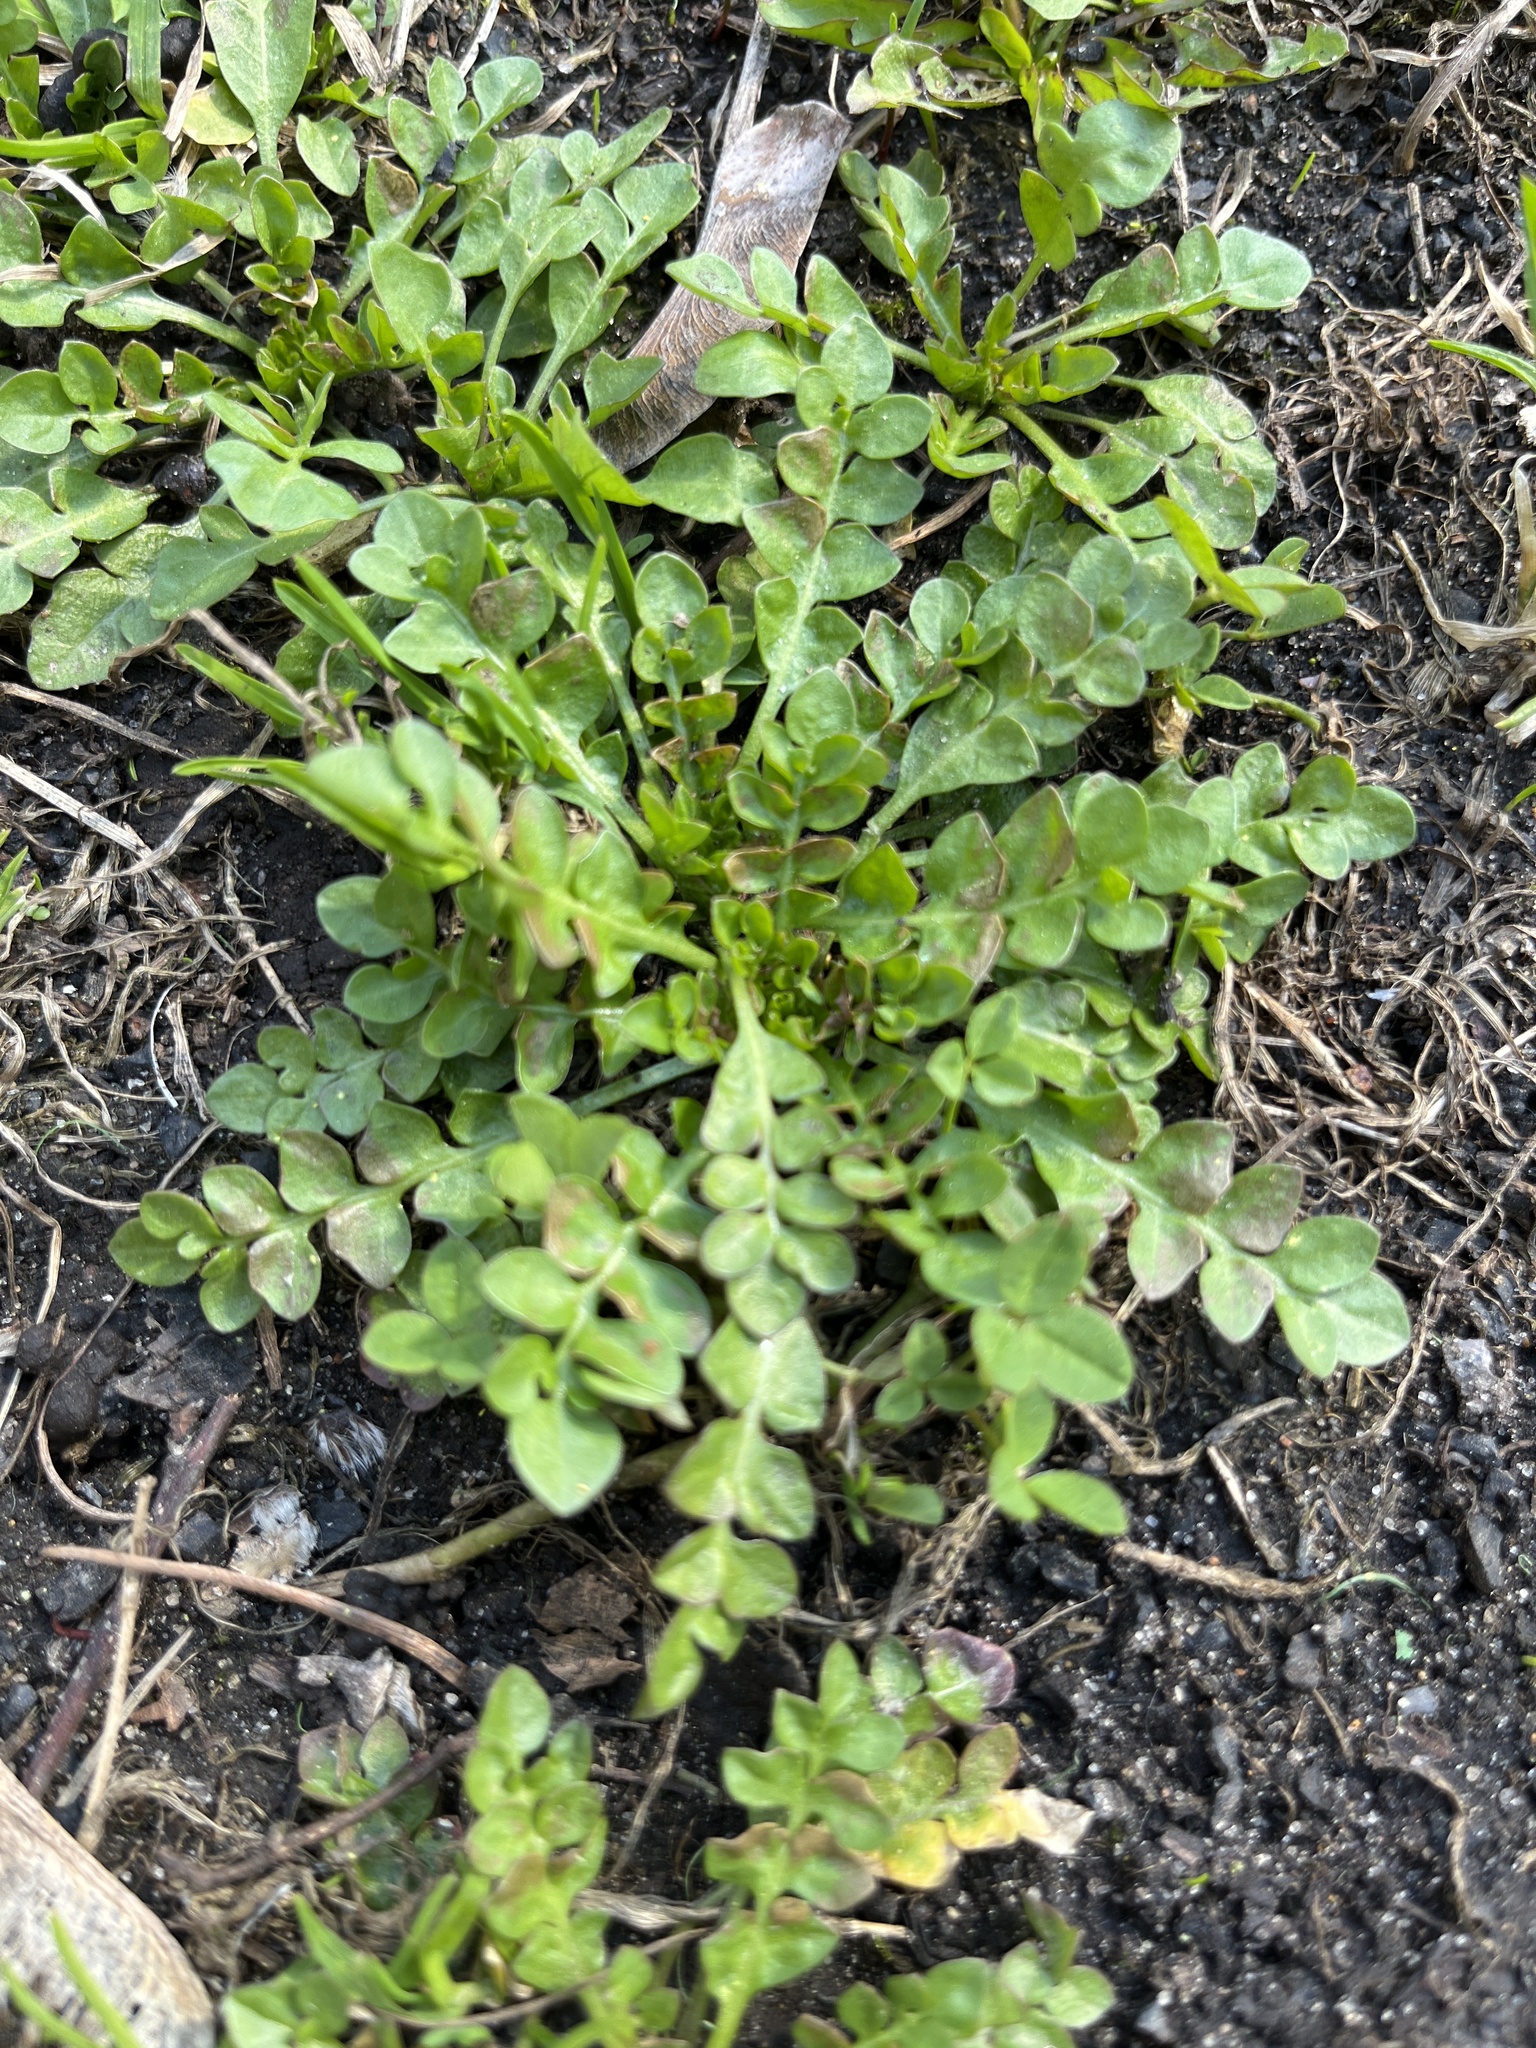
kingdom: Plantae
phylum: Tracheophyta
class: Magnoliopsida
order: Brassicales
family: Brassicaceae
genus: Capsella
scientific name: Capsella bursa-pastoris
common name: Shepherd's purse
